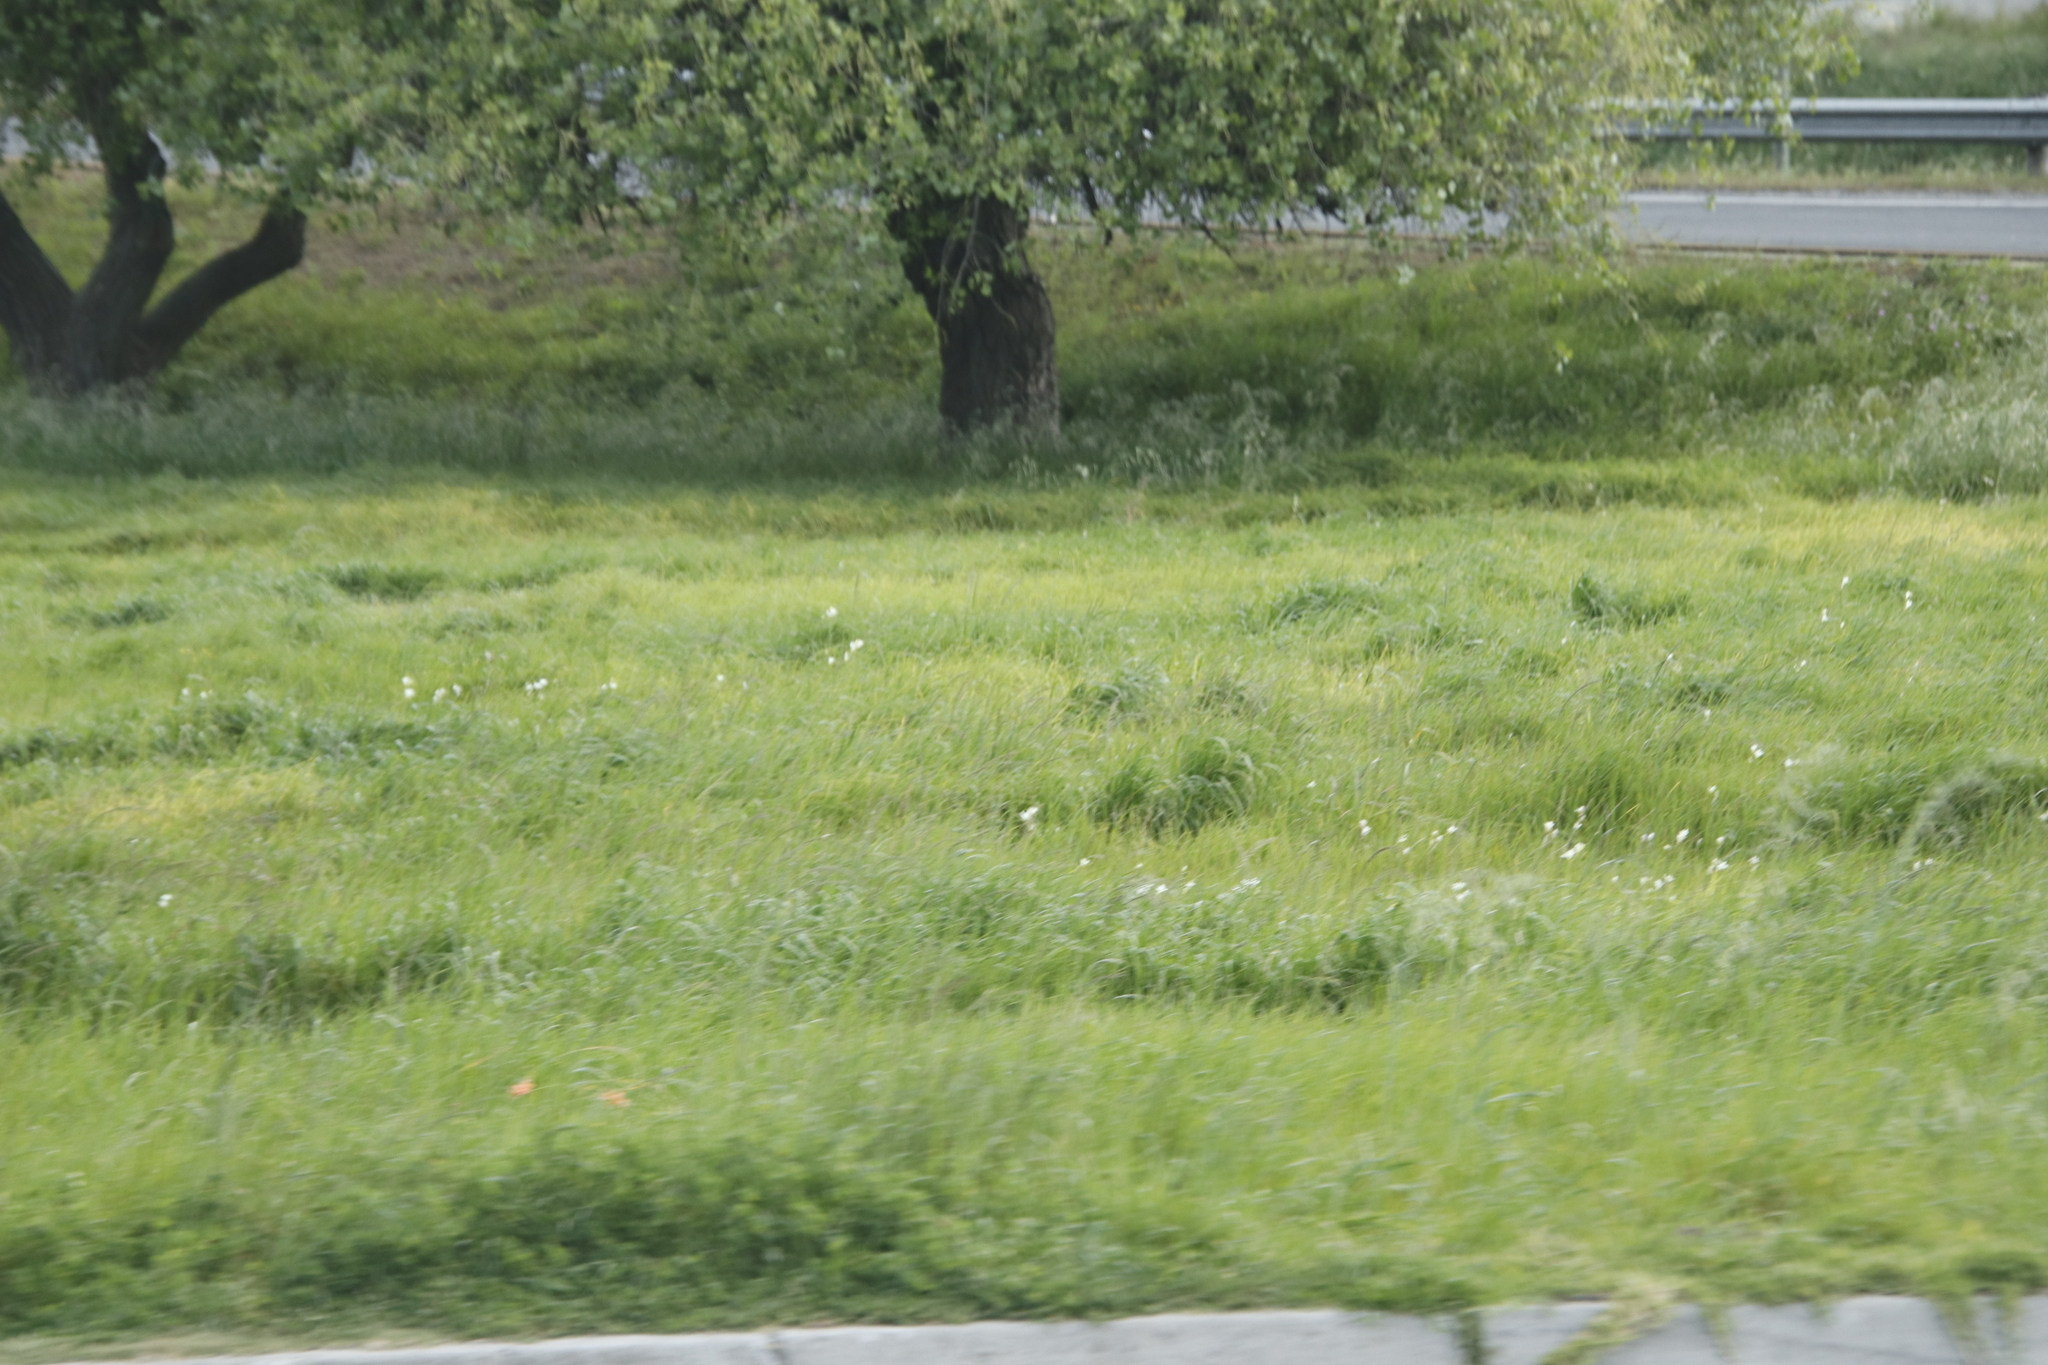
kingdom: Plantae
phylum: Tracheophyta
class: Liliopsida
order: Asparagales
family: Iridaceae
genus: Sparaxis
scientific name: Sparaxis bulbifera
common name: Harlequin-flower
